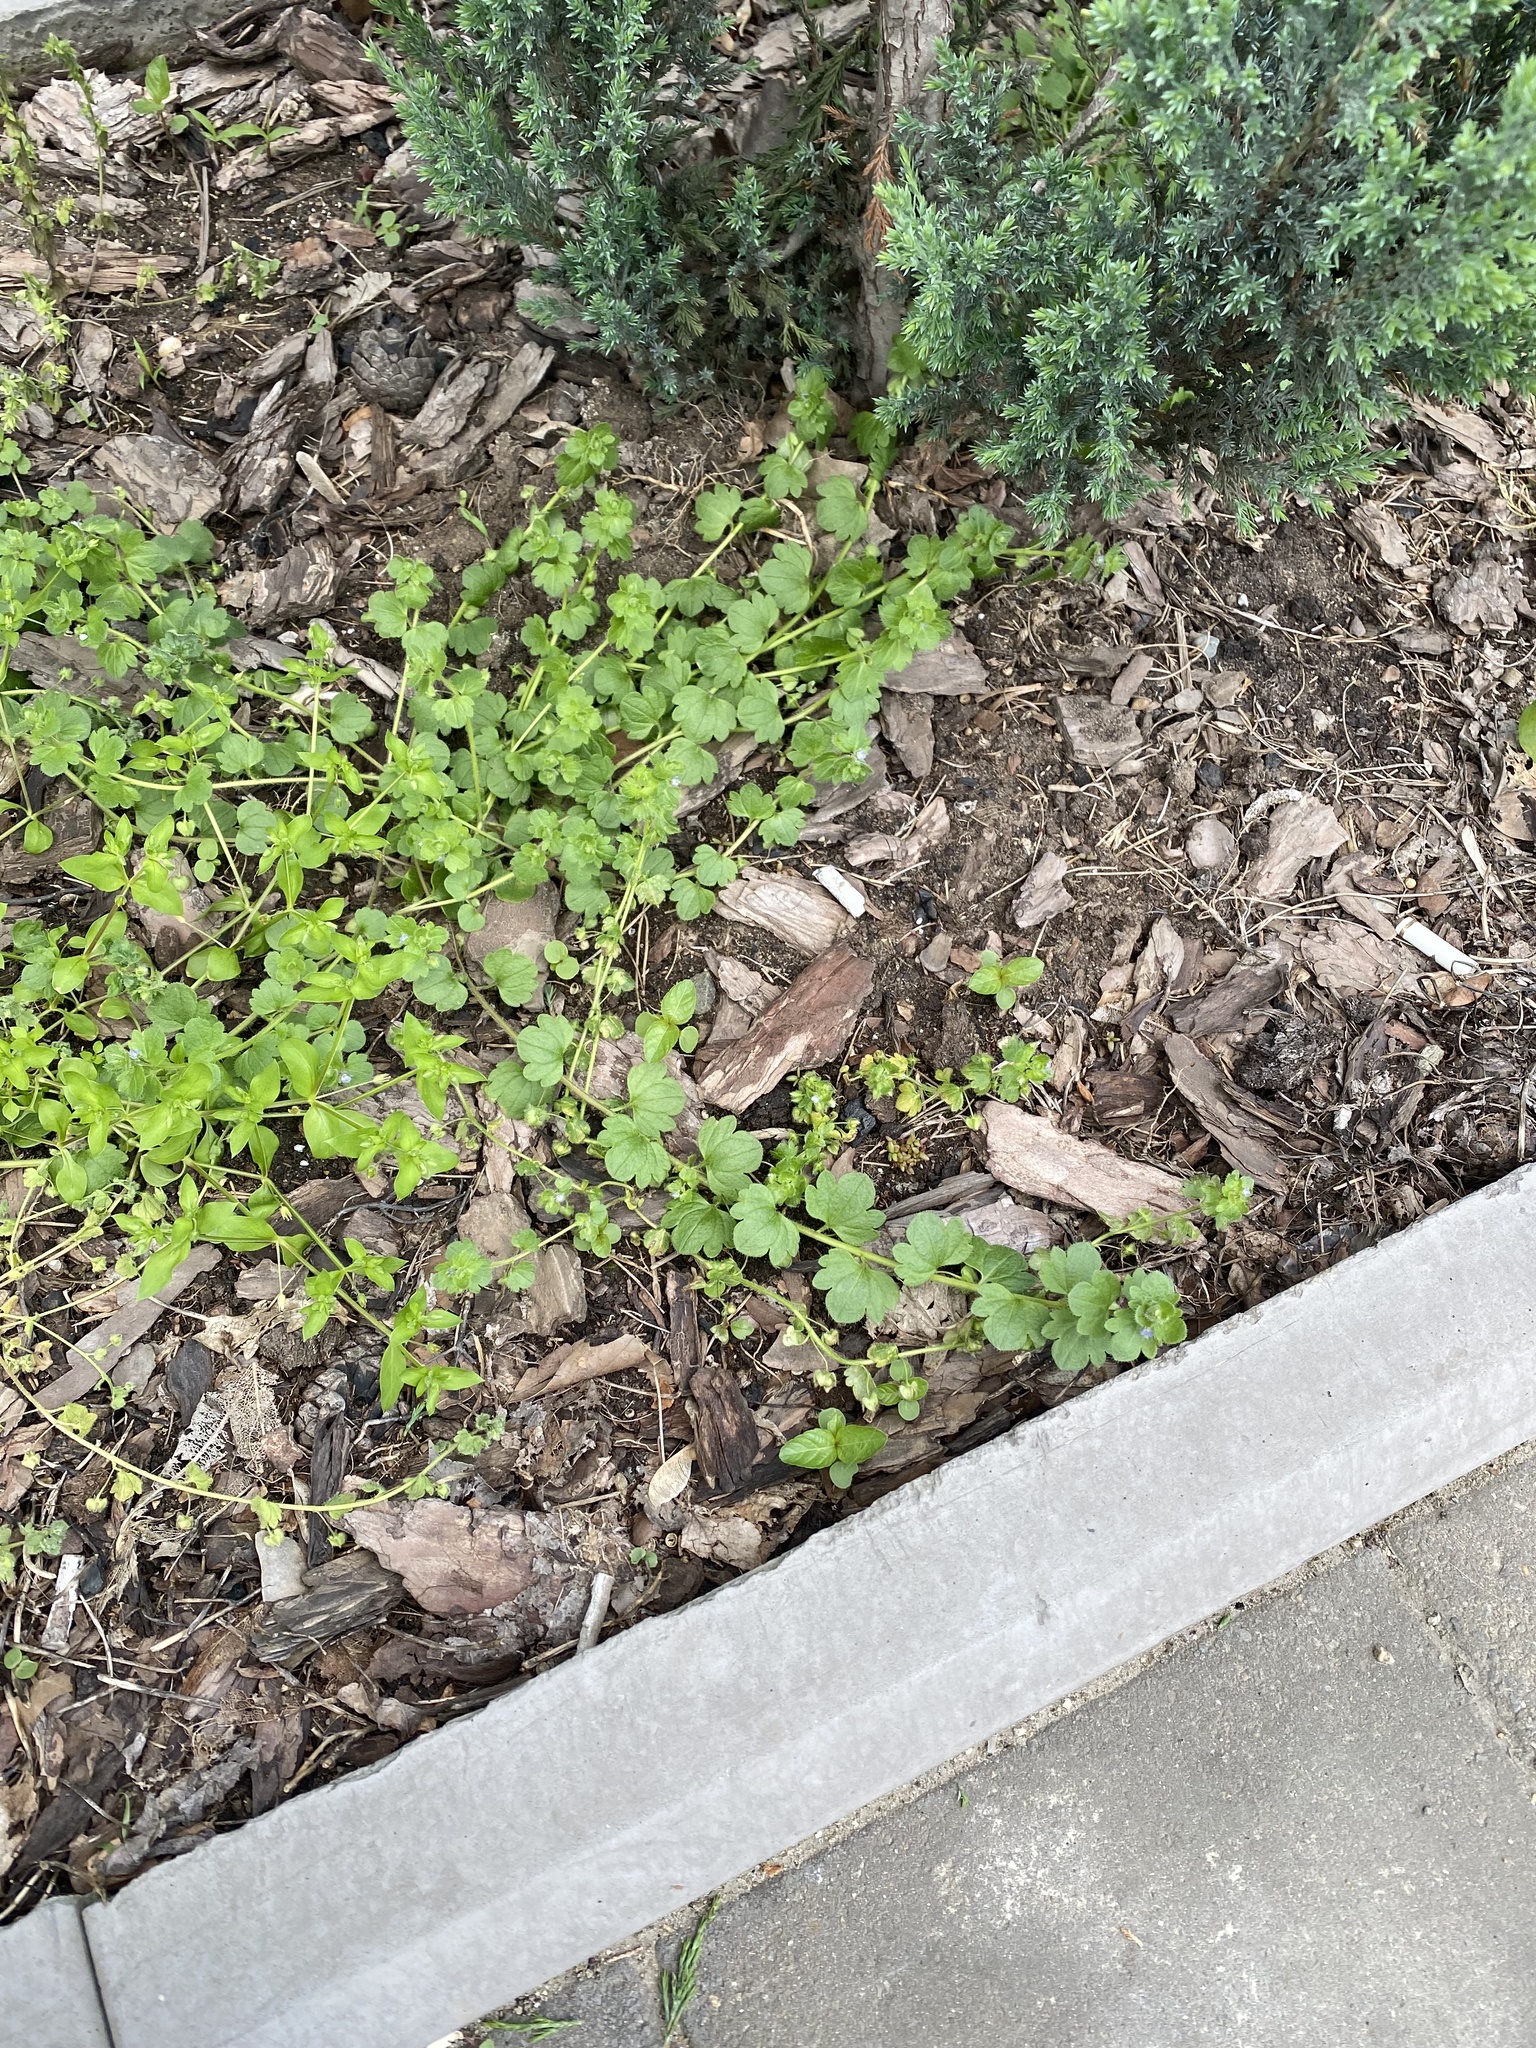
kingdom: Plantae
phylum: Tracheophyta
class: Magnoliopsida
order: Lamiales
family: Plantaginaceae
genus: Veronica
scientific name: Veronica hederifolia
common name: Ivy-leaved speedwell
